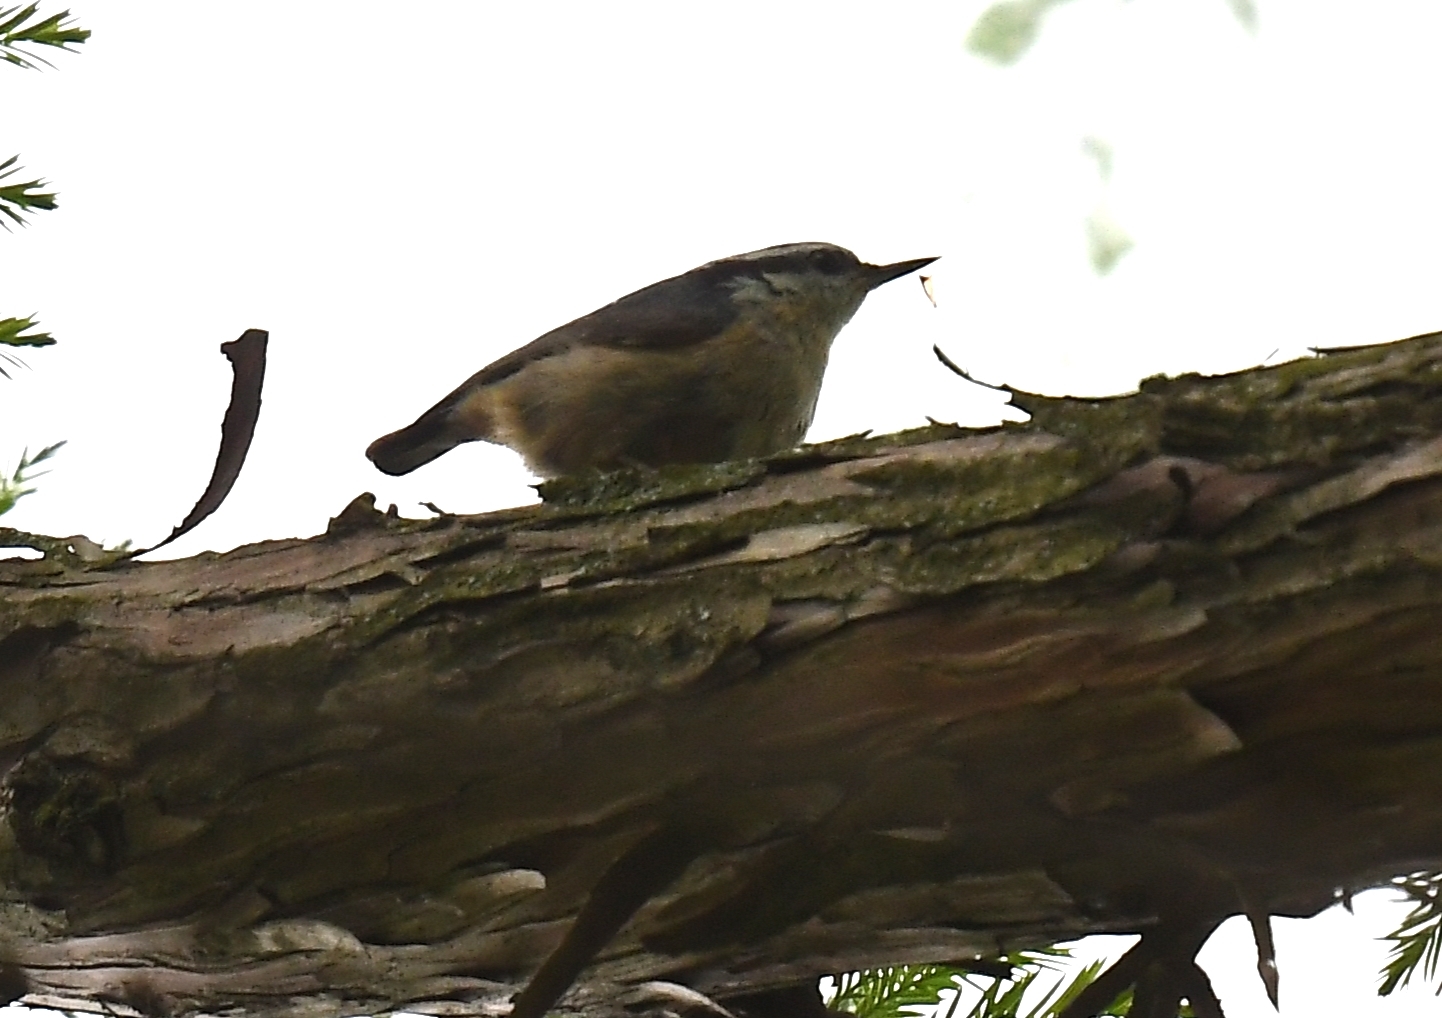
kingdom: Animalia
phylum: Chordata
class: Aves
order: Passeriformes
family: Sittidae
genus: Sitta
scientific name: Sitta canadensis
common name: Red-breasted nuthatch
